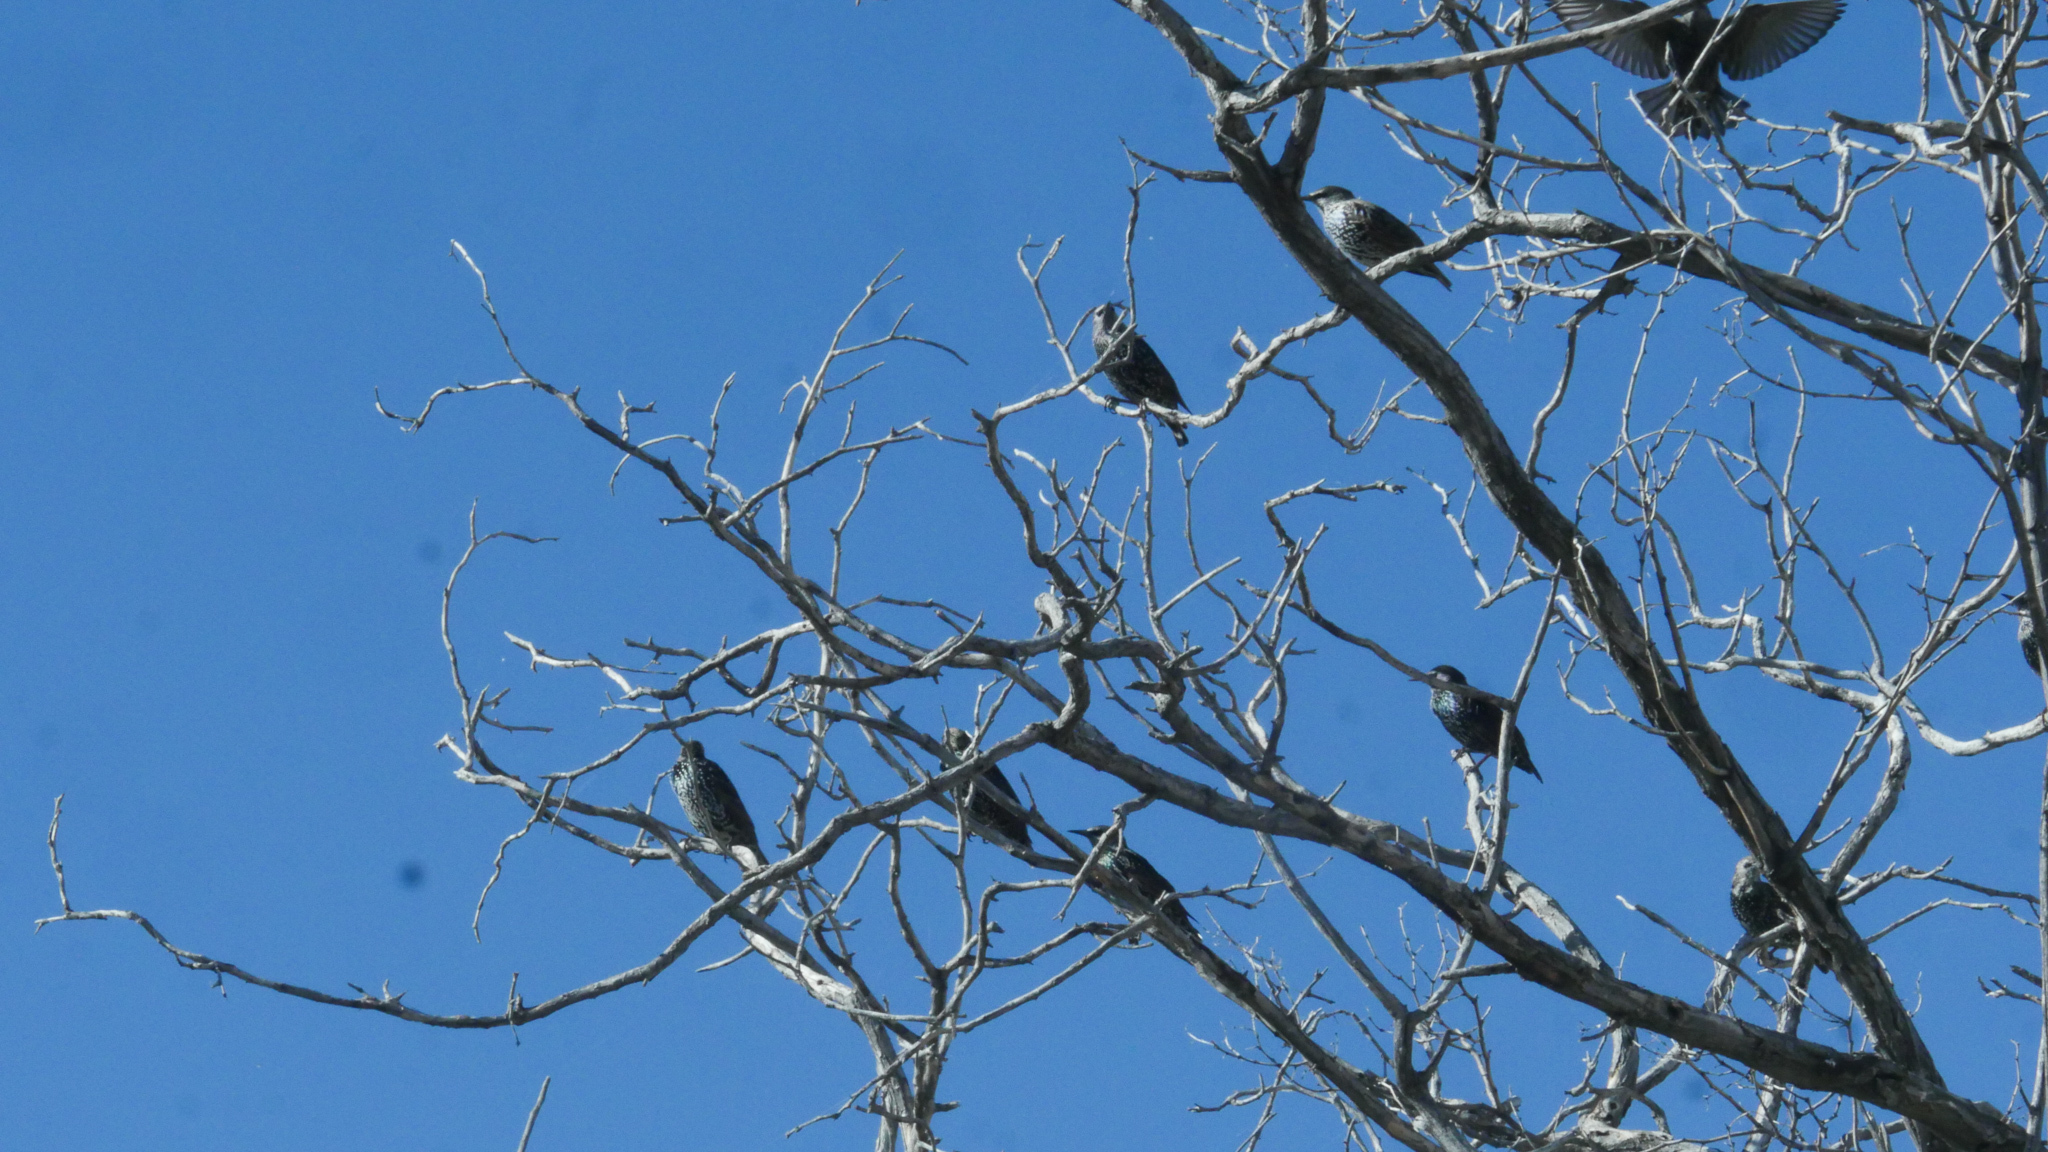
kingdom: Animalia
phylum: Chordata
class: Aves
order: Passeriformes
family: Sturnidae
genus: Sturnus
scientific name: Sturnus vulgaris
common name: Common starling
